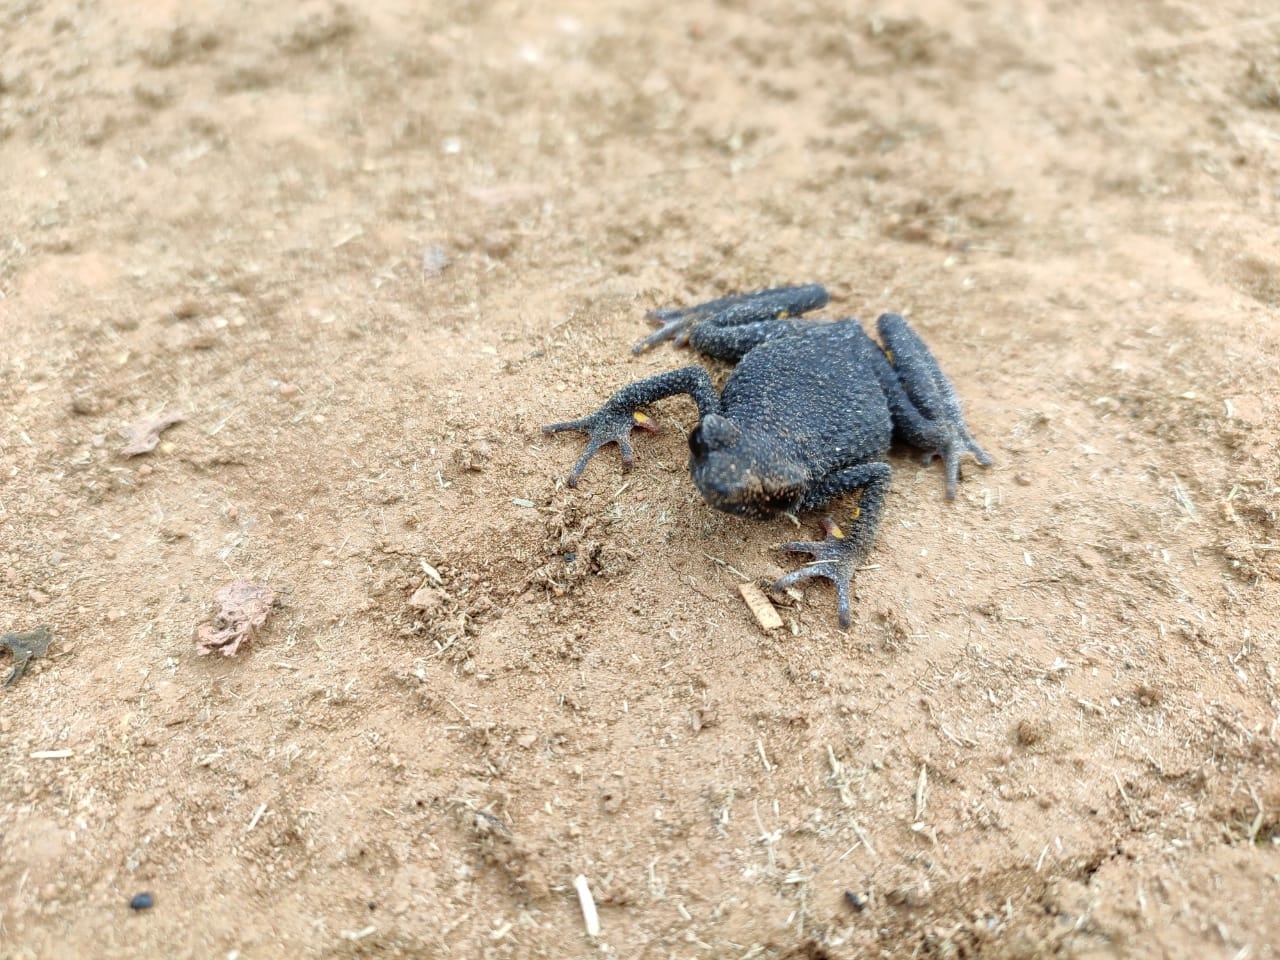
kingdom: Animalia
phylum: Chordata
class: Amphibia
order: Anura
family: Bufonidae
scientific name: Bufonidae
